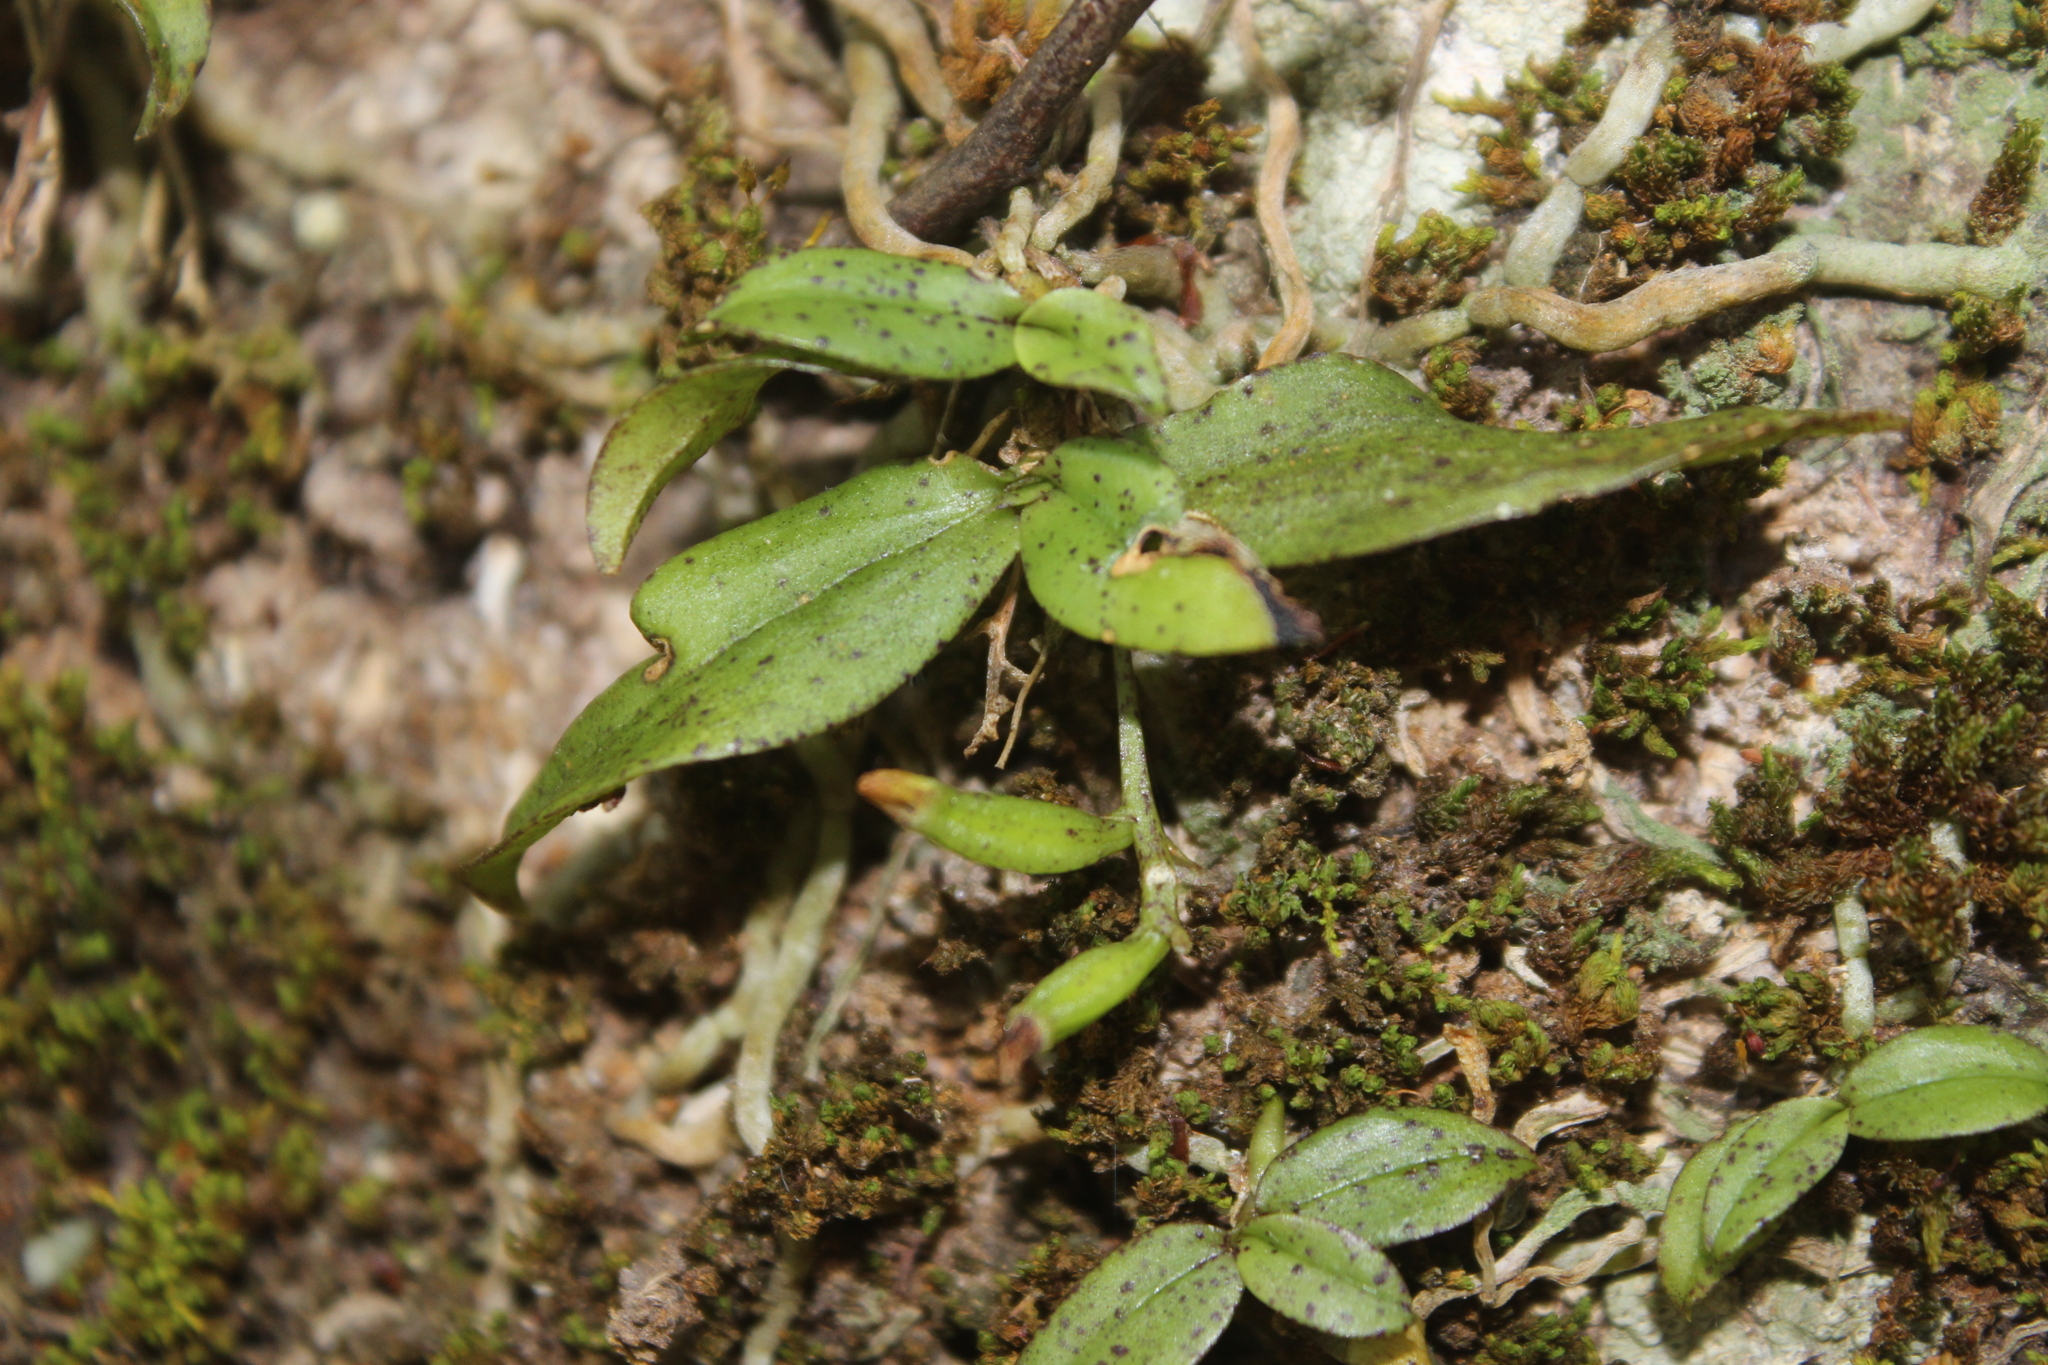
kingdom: Plantae
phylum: Tracheophyta
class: Liliopsida
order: Asparagales
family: Orchidaceae
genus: Drymoanthus
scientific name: Drymoanthus flavus
